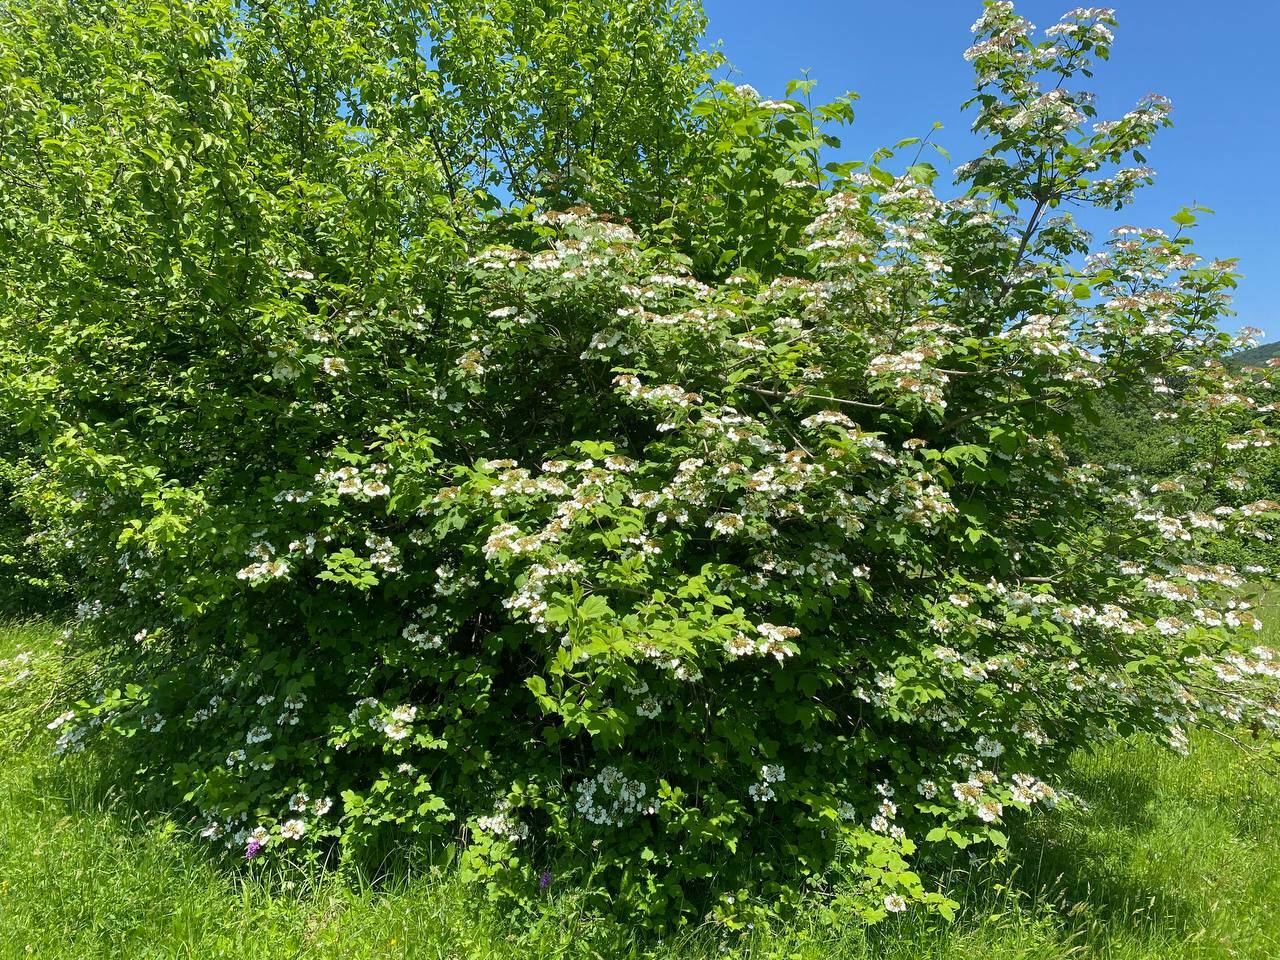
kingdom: Plantae
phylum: Tracheophyta
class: Magnoliopsida
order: Dipsacales
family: Viburnaceae
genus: Viburnum
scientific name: Viburnum opulus
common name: Guelder-rose
